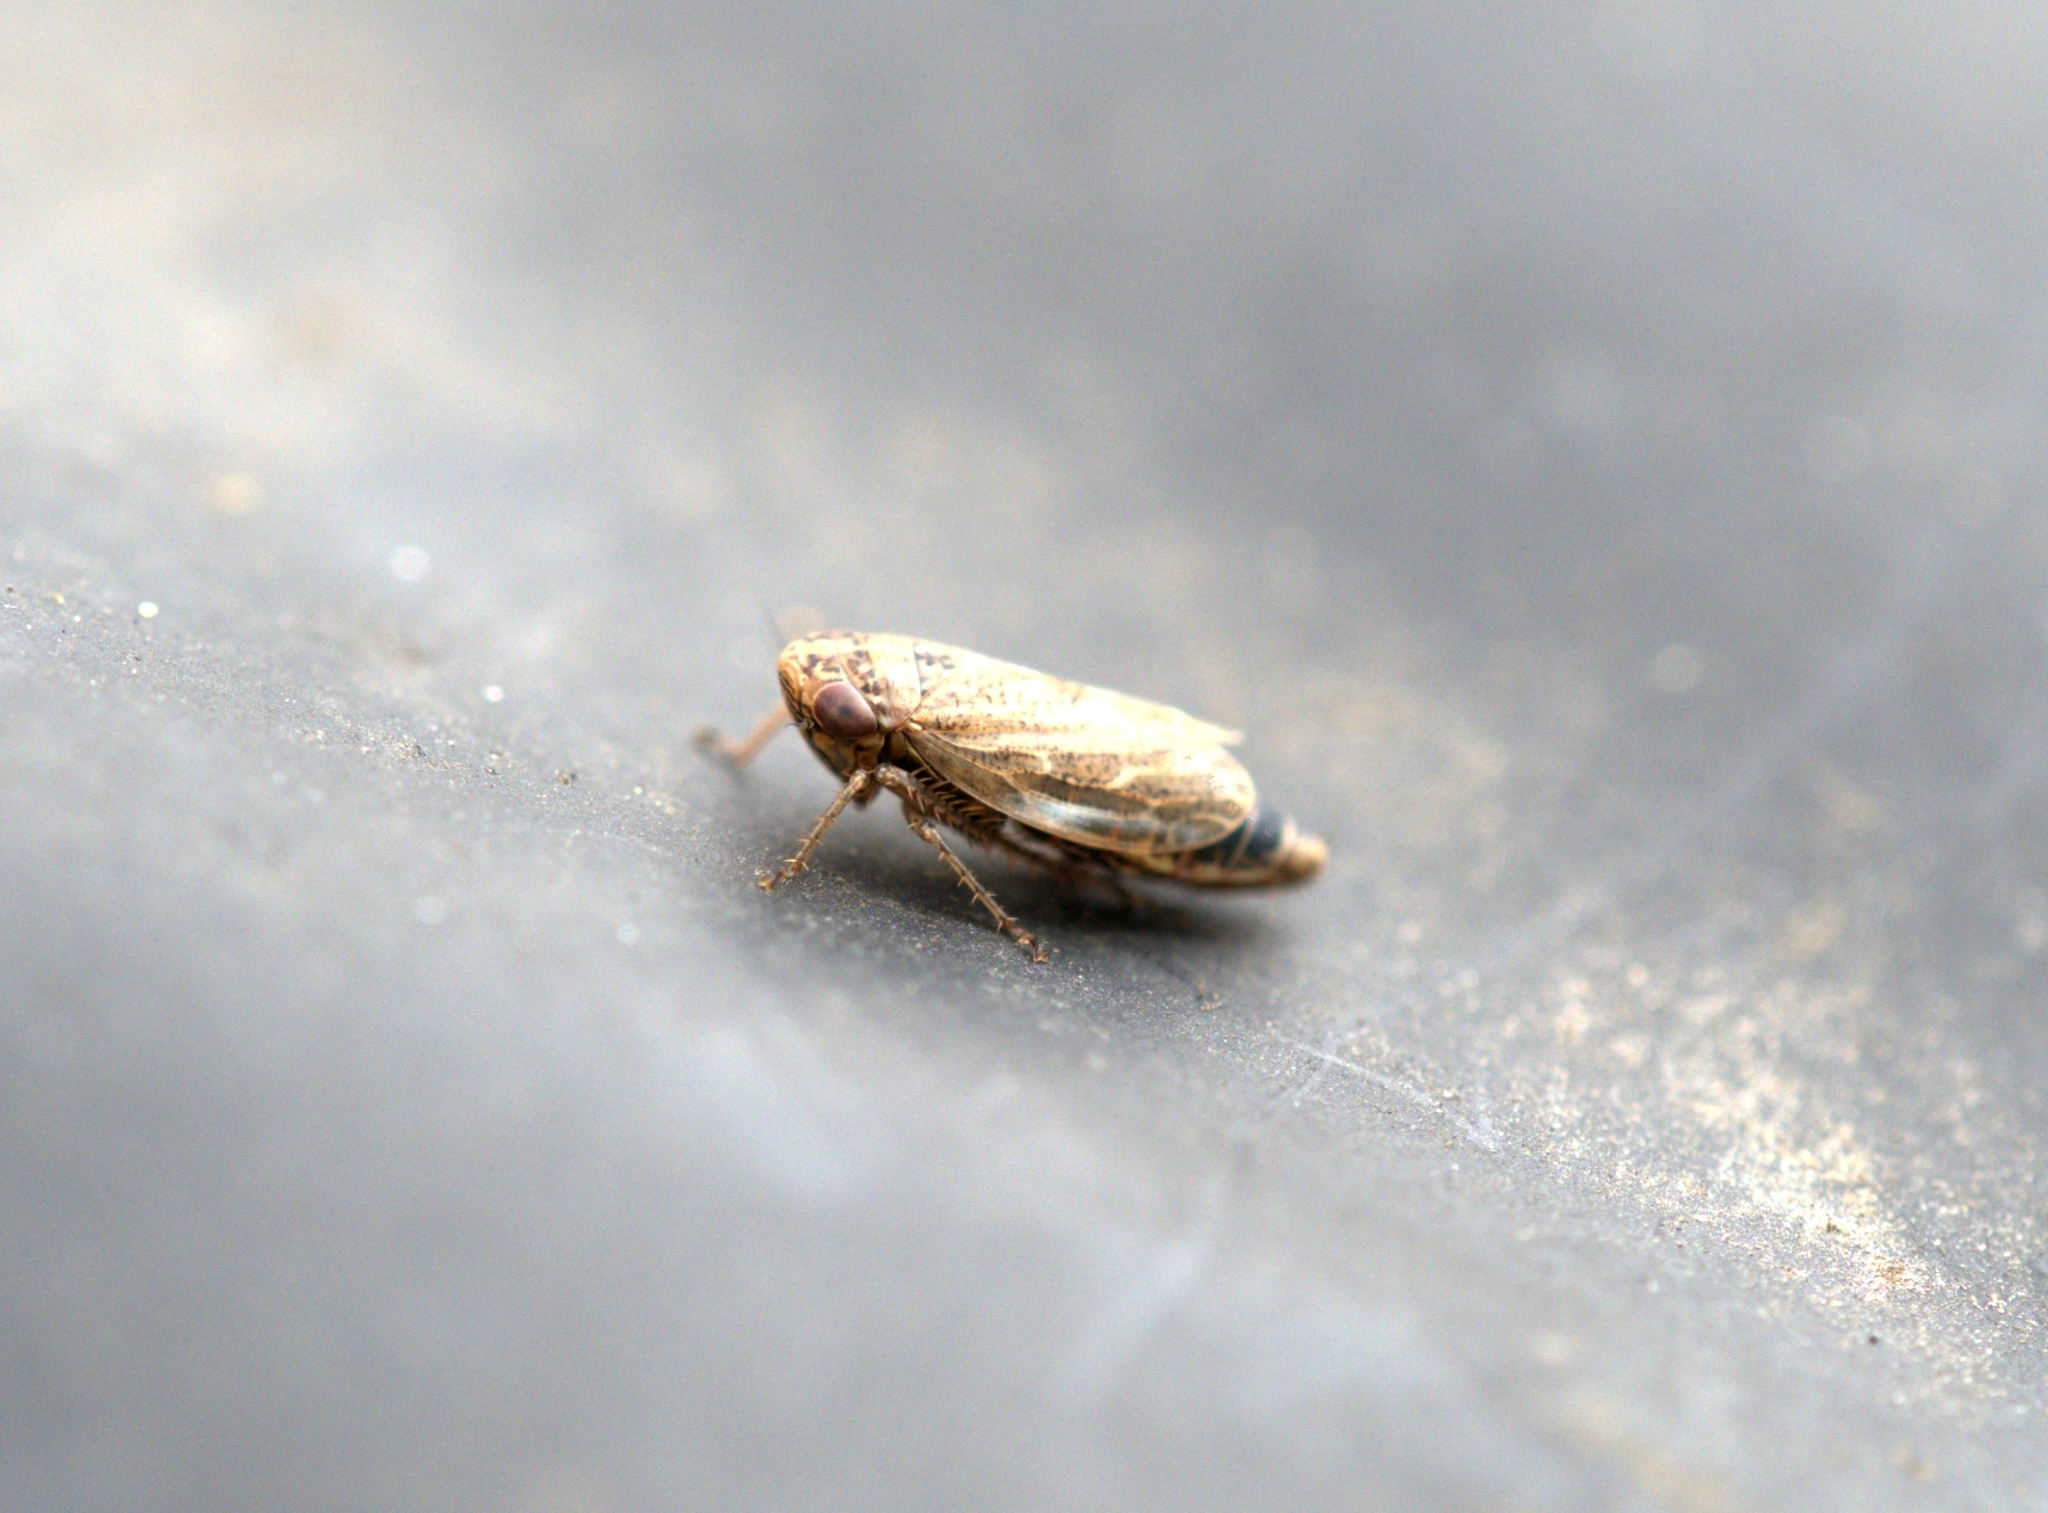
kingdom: Animalia
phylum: Arthropoda
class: Insecta
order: Hemiptera
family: Cicadellidae
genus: Euscelis
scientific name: Euscelis incisa
